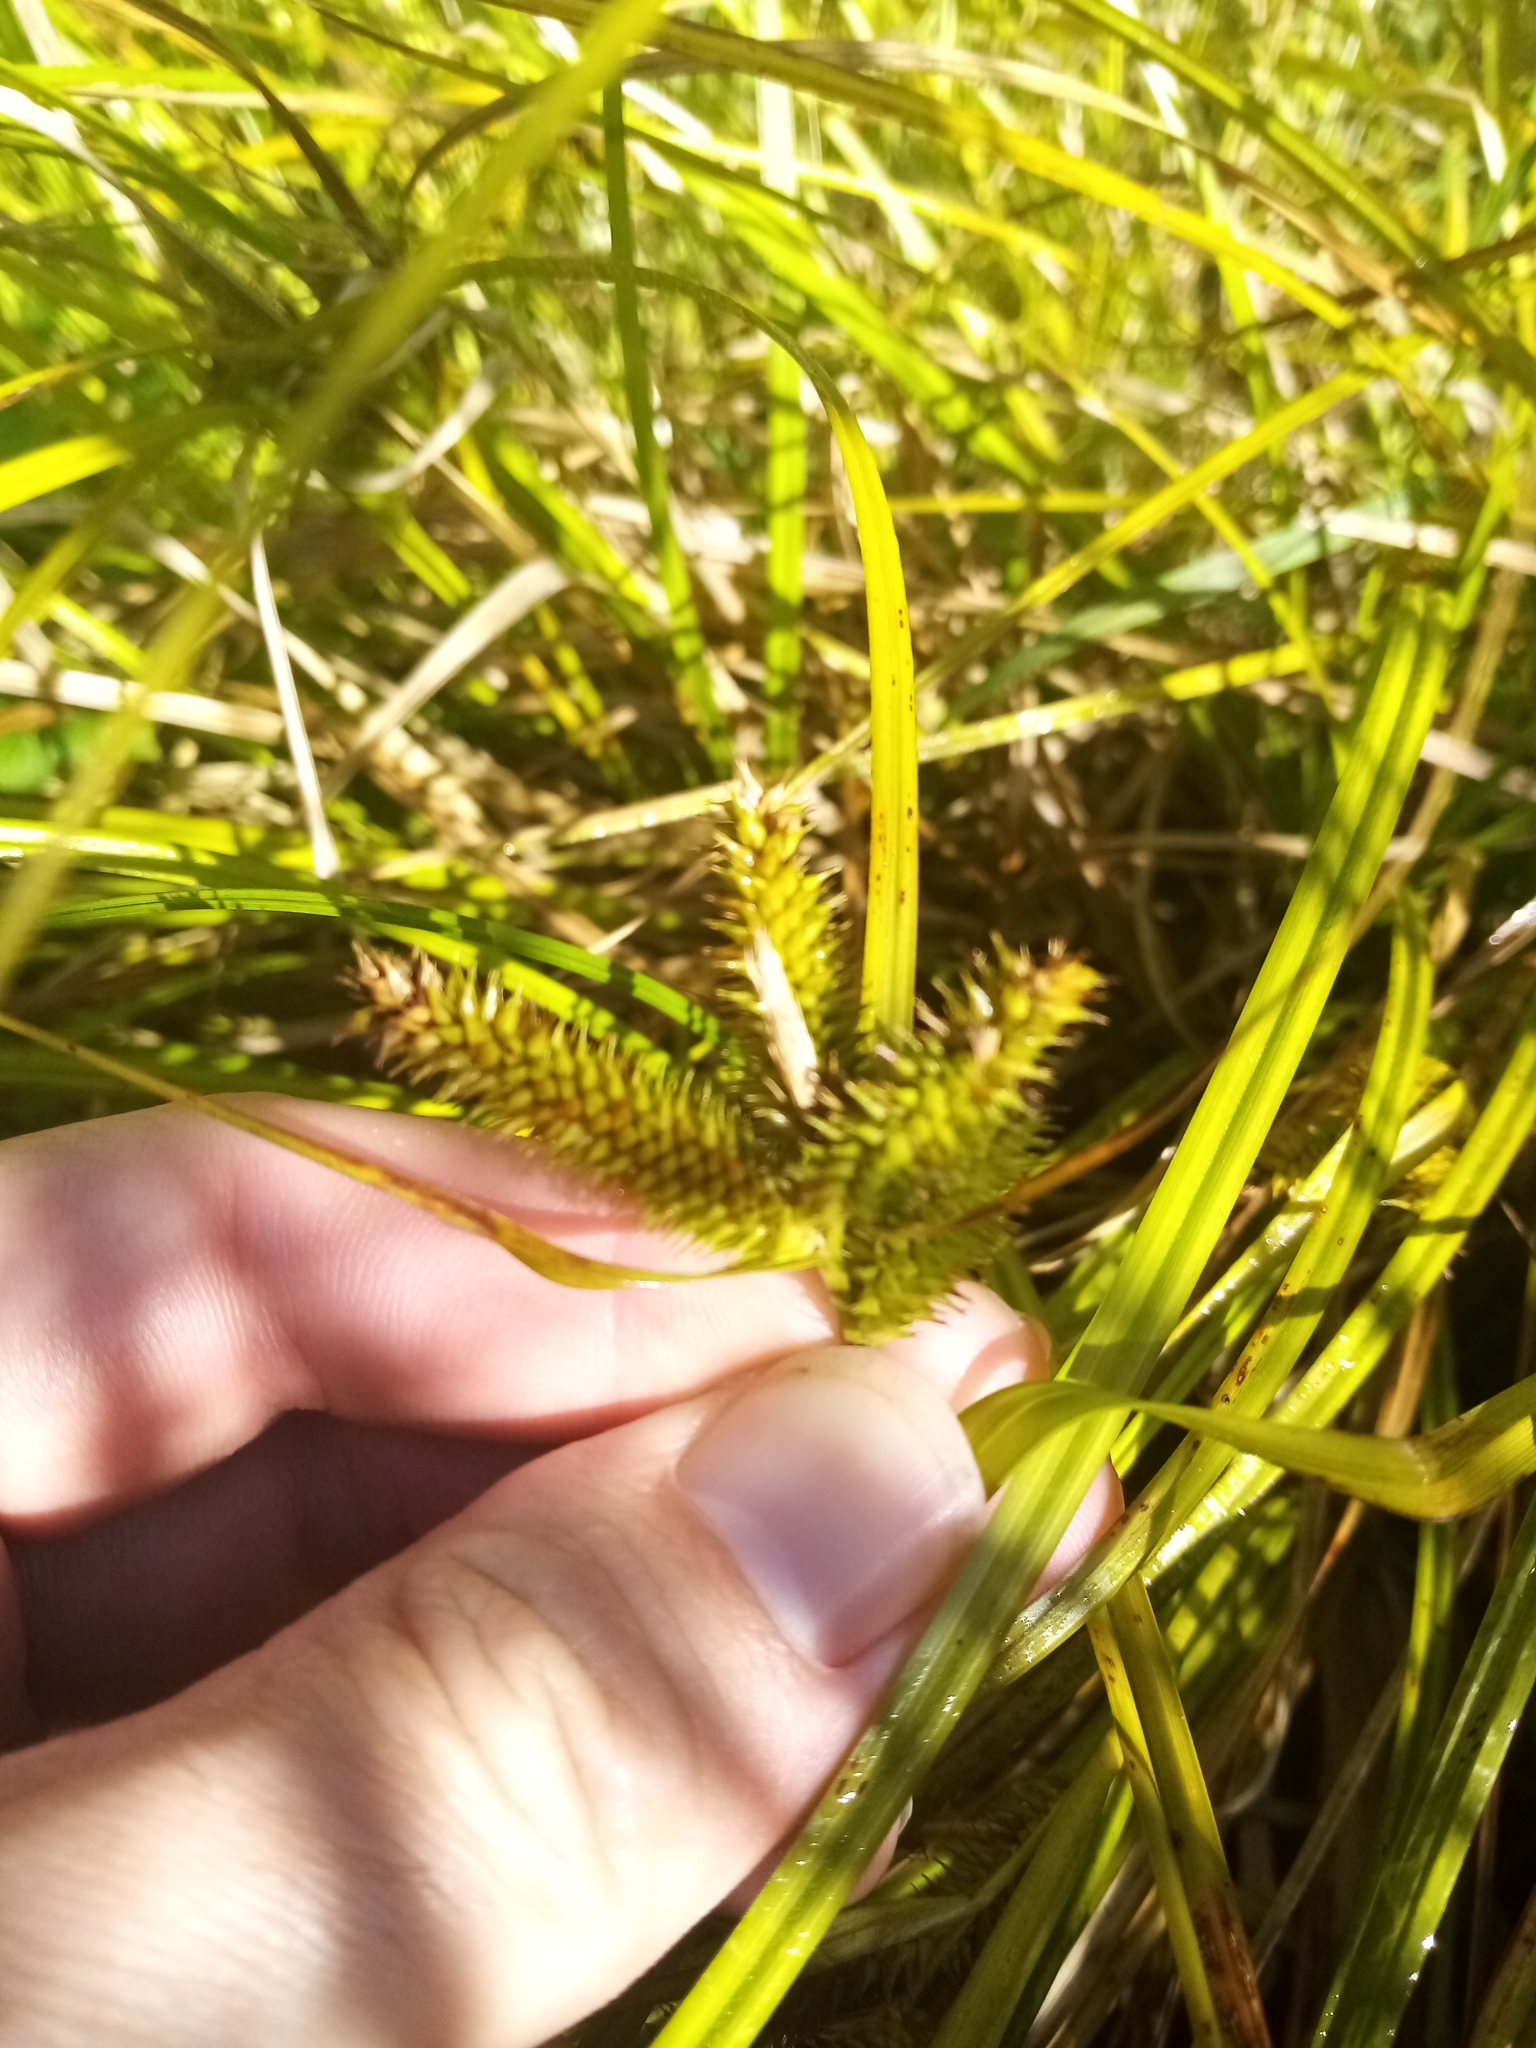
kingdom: Plantae
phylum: Tracheophyta
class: Liliopsida
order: Poales
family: Cyperaceae
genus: Carex
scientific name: Carex maorica
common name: Maori sedge
